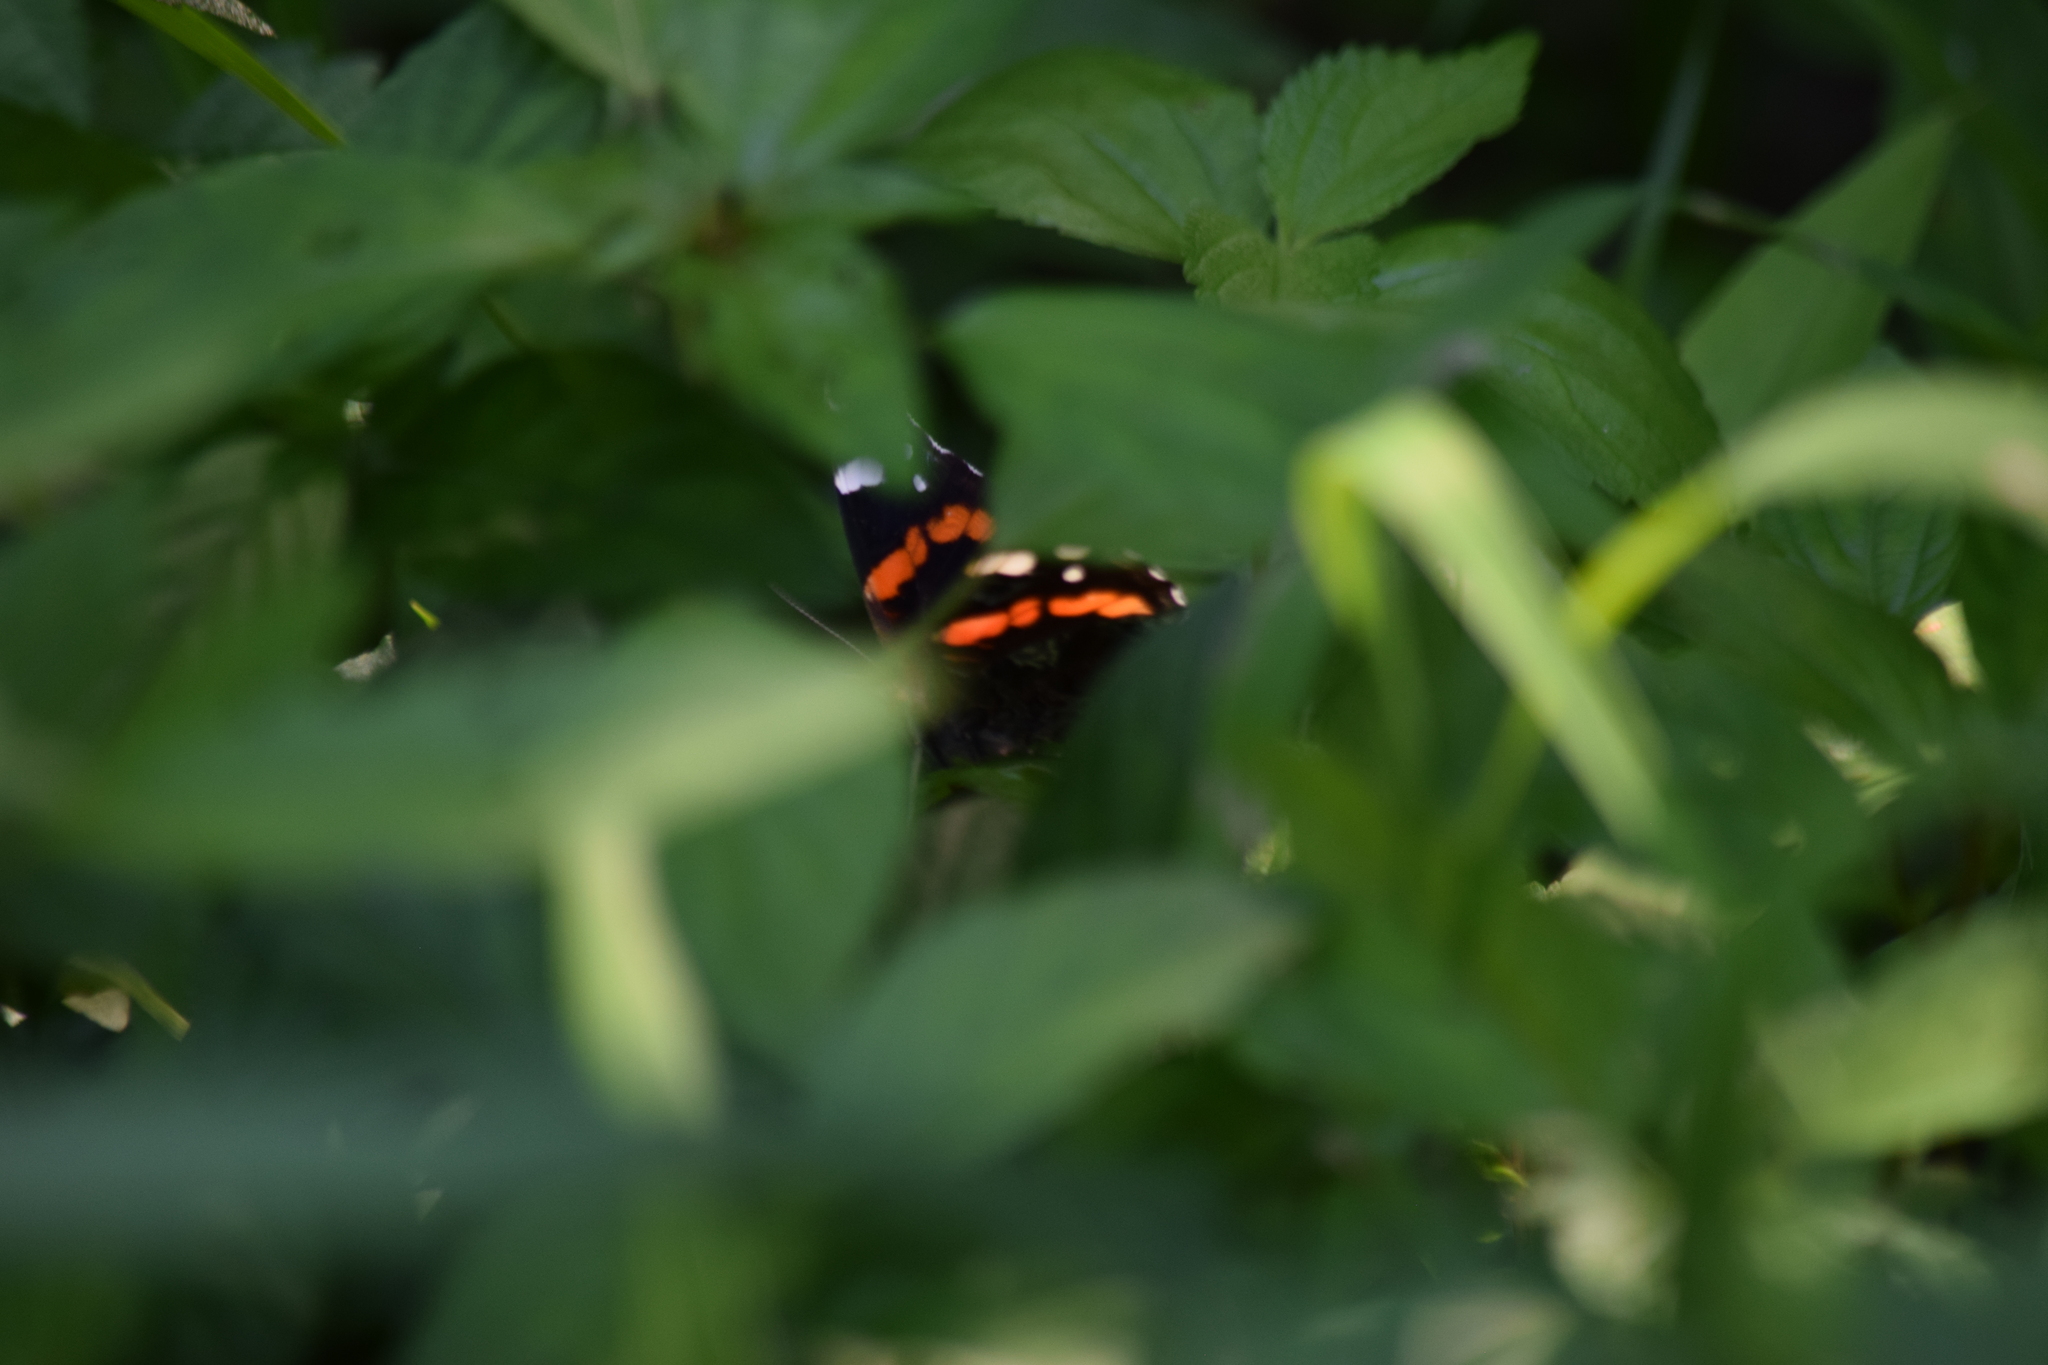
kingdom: Animalia
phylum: Arthropoda
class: Insecta
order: Lepidoptera
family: Nymphalidae
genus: Vanessa
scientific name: Vanessa atalanta
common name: Red admiral
